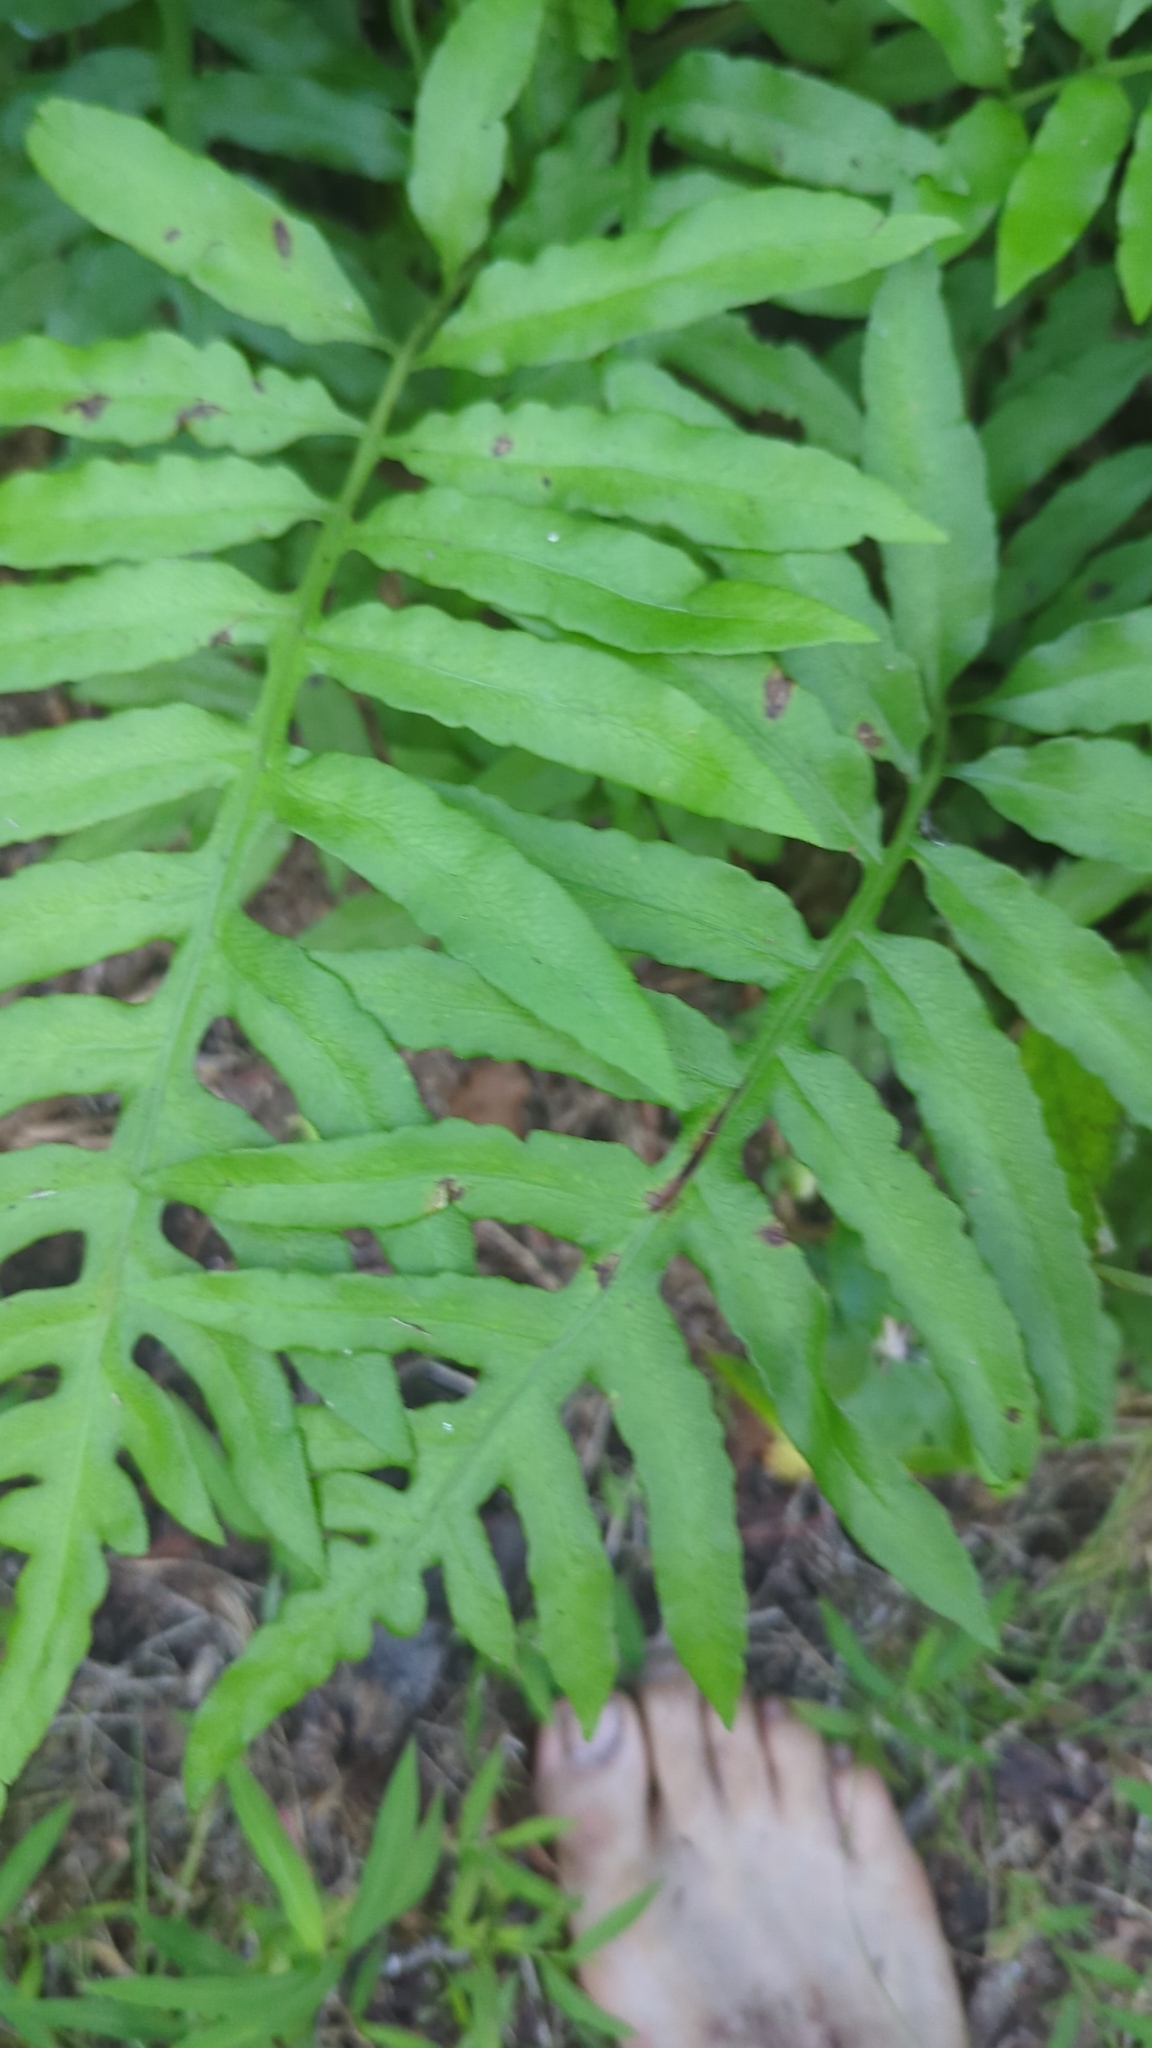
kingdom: Plantae
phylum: Tracheophyta
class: Polypodiopsida
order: Polypodiales
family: Blechnaceae
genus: Lorinseria
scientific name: Lorinseria areolata
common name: Dwarf chain fern
